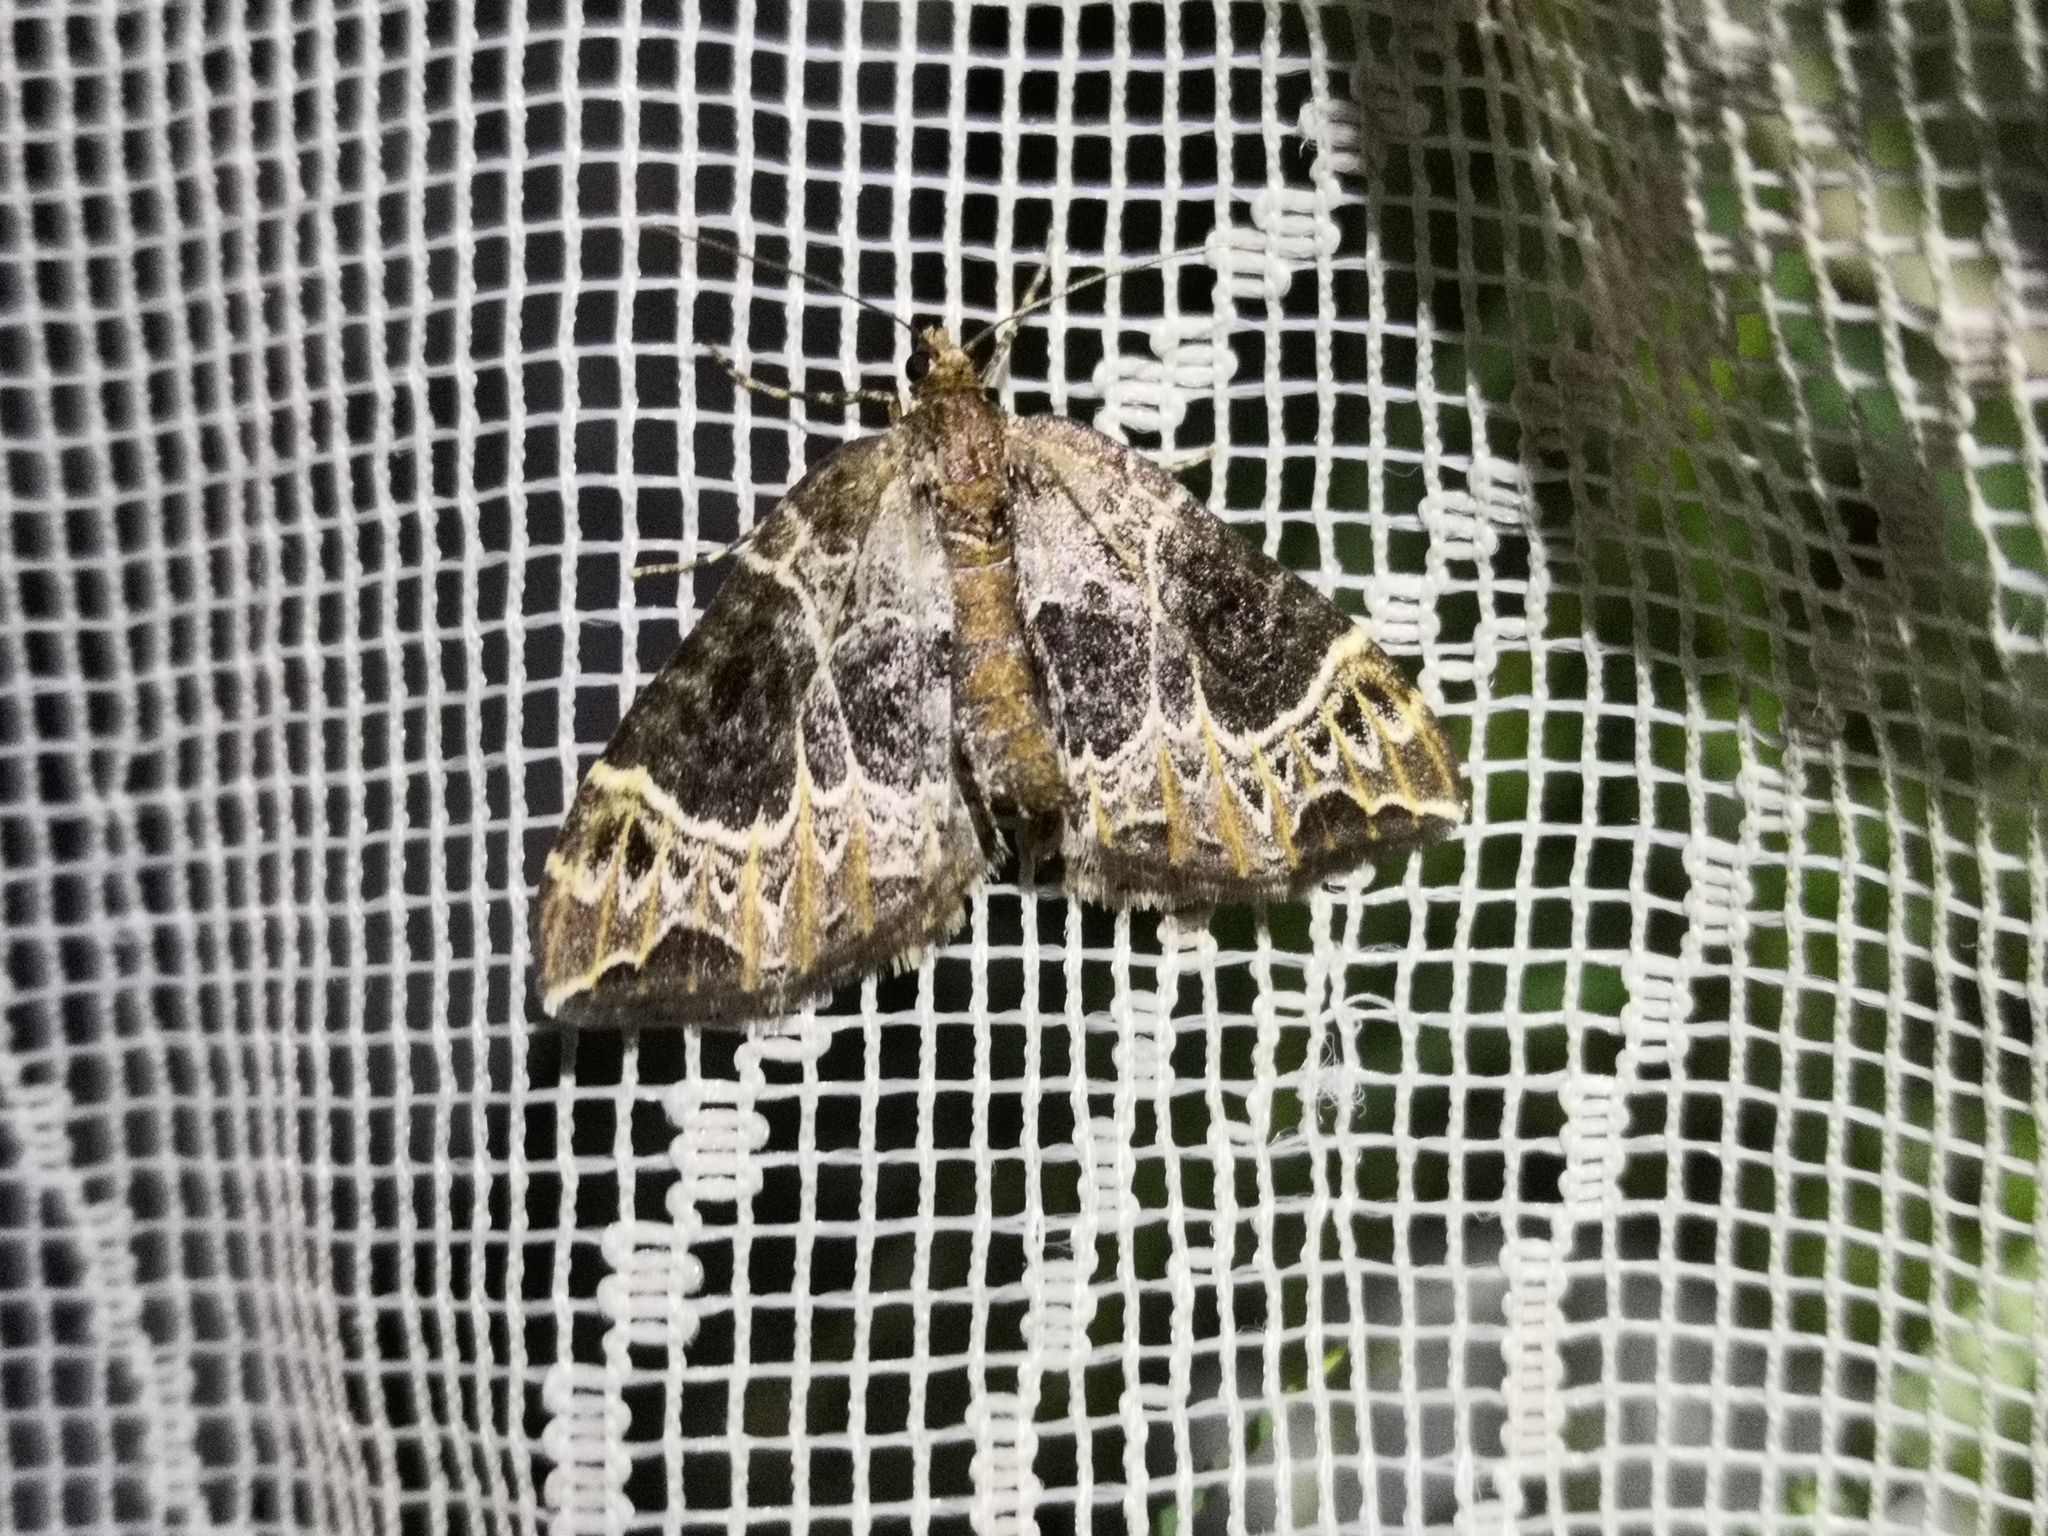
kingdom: Animalia
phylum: Arthropoda
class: Insecta
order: Lepidoptera
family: Geometridae
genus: Ecliptopera
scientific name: Ecliptopera silaceata
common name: Small phoenix
